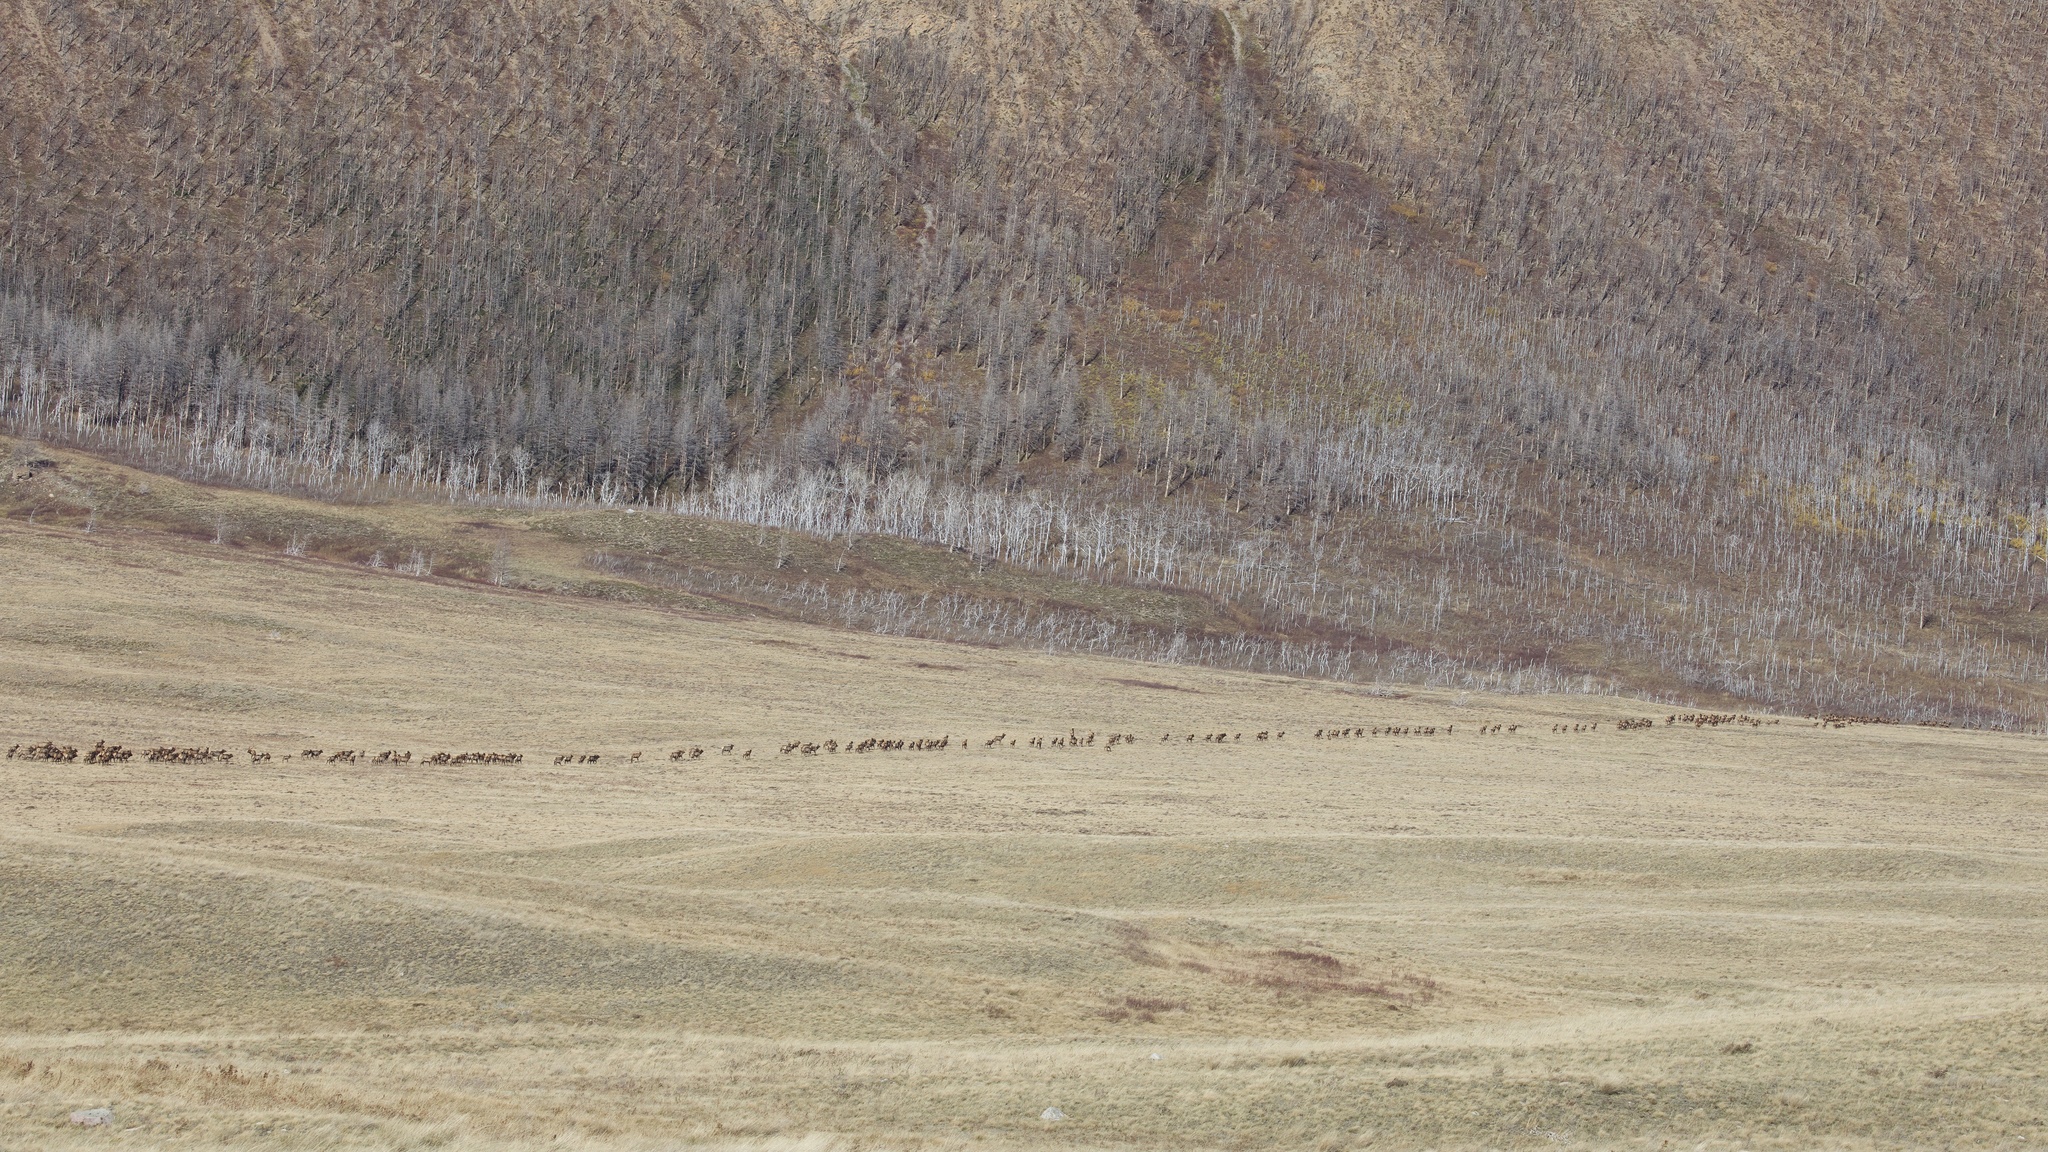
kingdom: Animalia
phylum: Chordata
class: Mammalia
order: Artiodactyla
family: Cervidae
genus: Cervus
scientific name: Cervus elaphus
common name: Red deer
